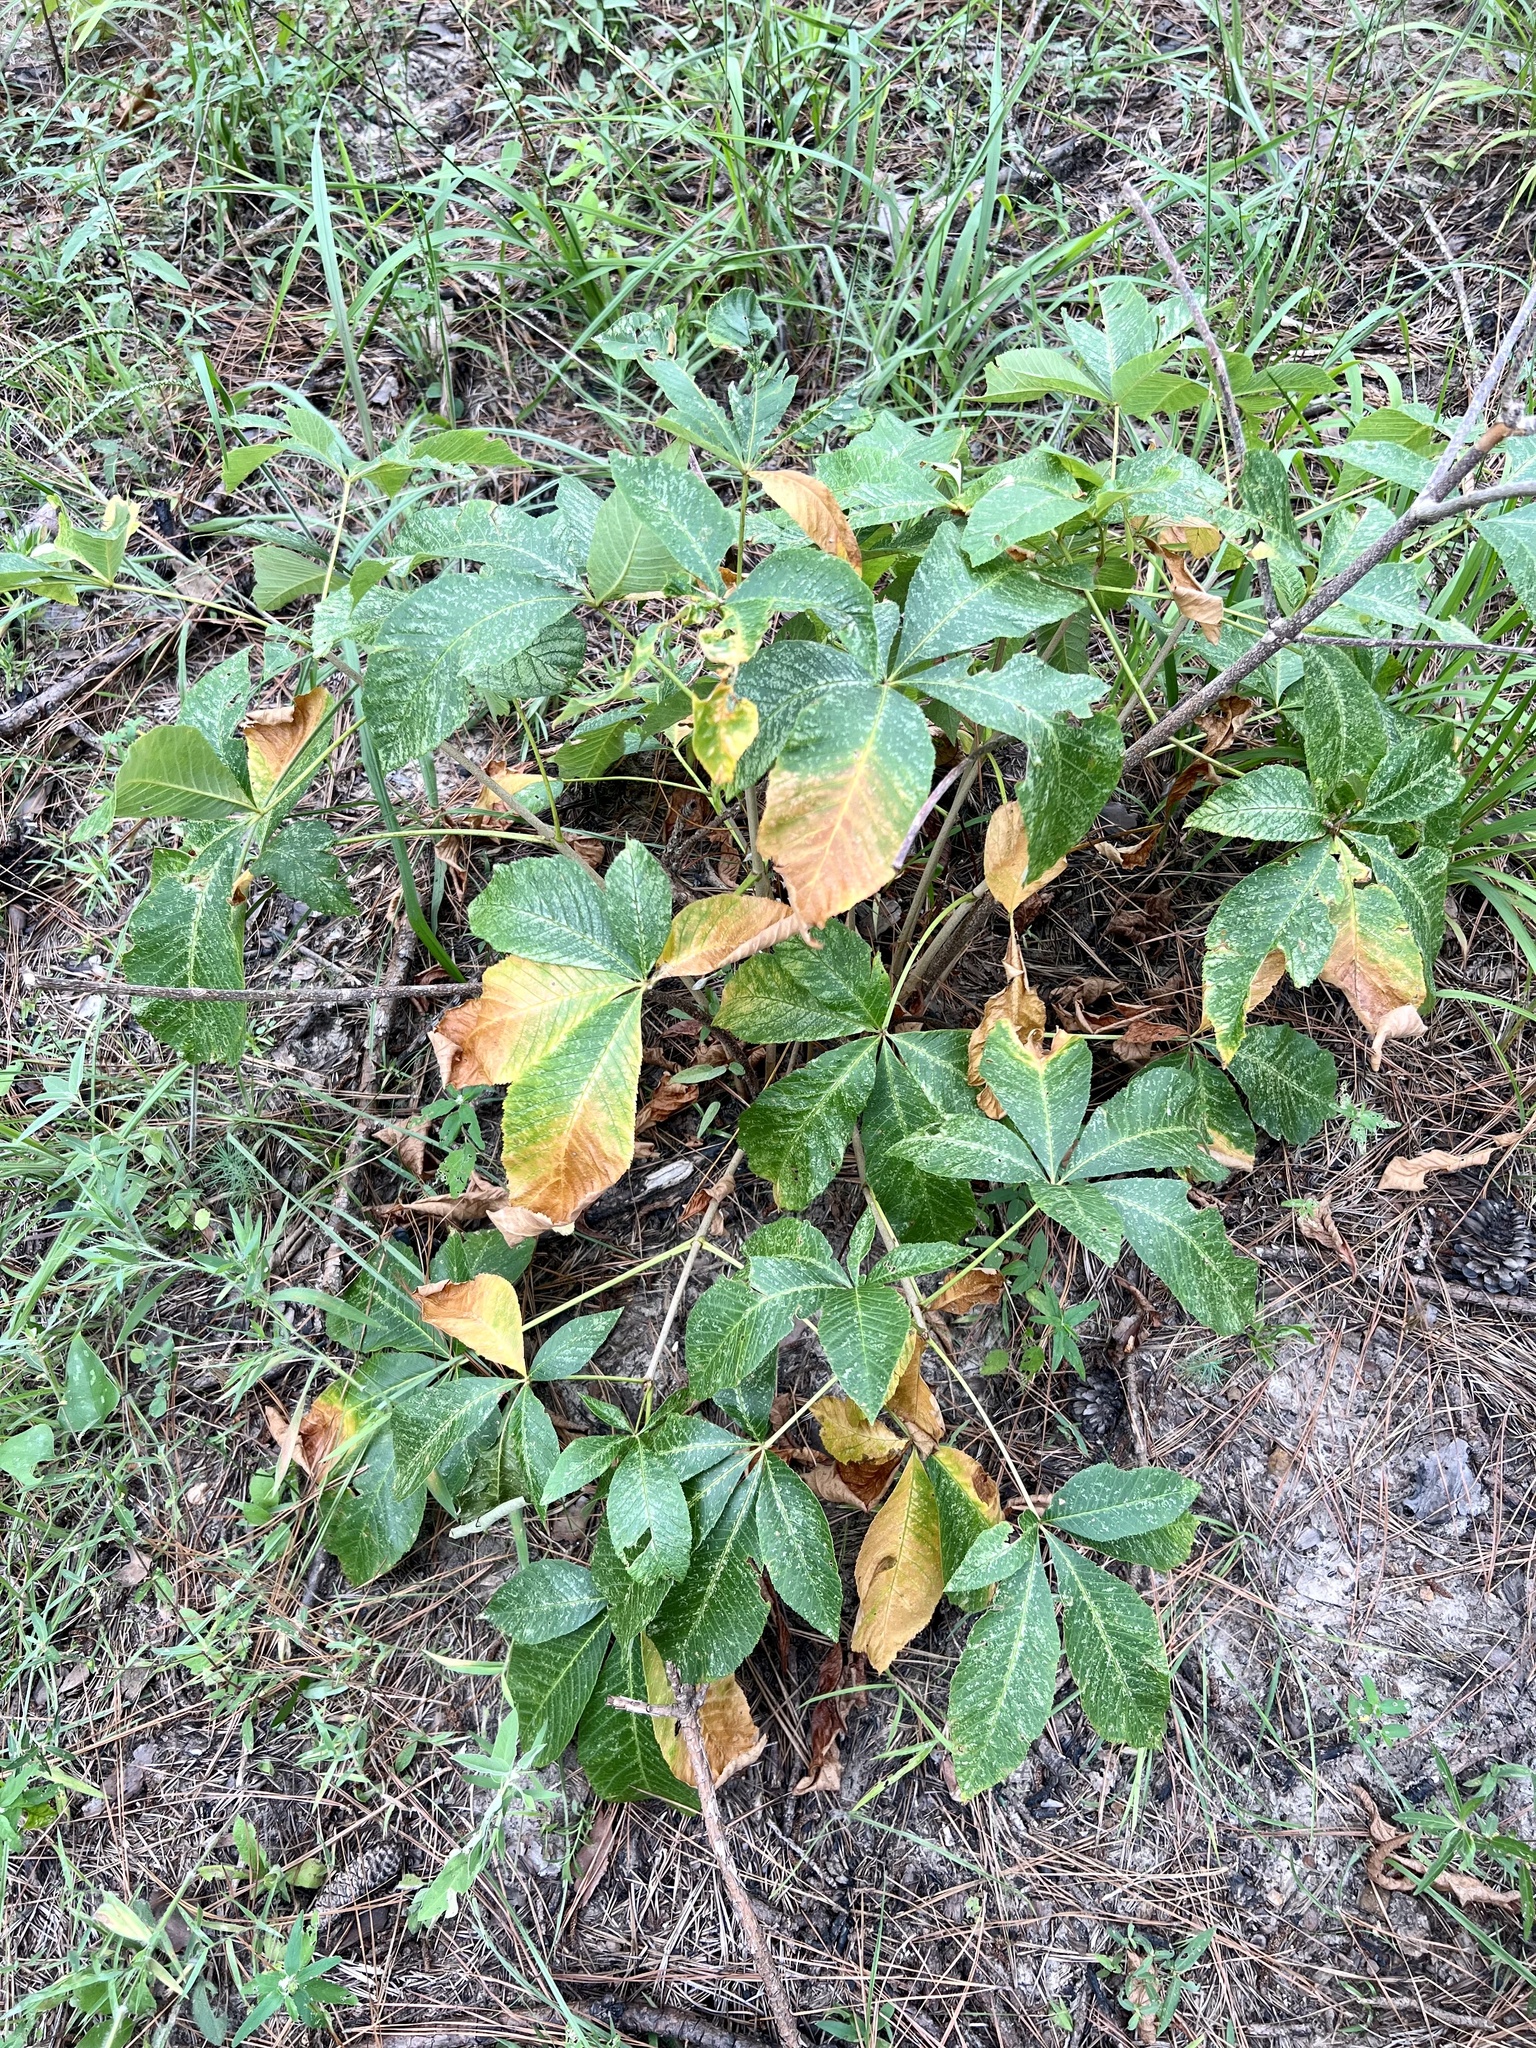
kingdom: Plantae
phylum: Tracheophyta
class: Magnoliopsida
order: Sapindales
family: Sapindaceae
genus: Aesculus
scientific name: Aesculus pavia
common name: Red buckeye
